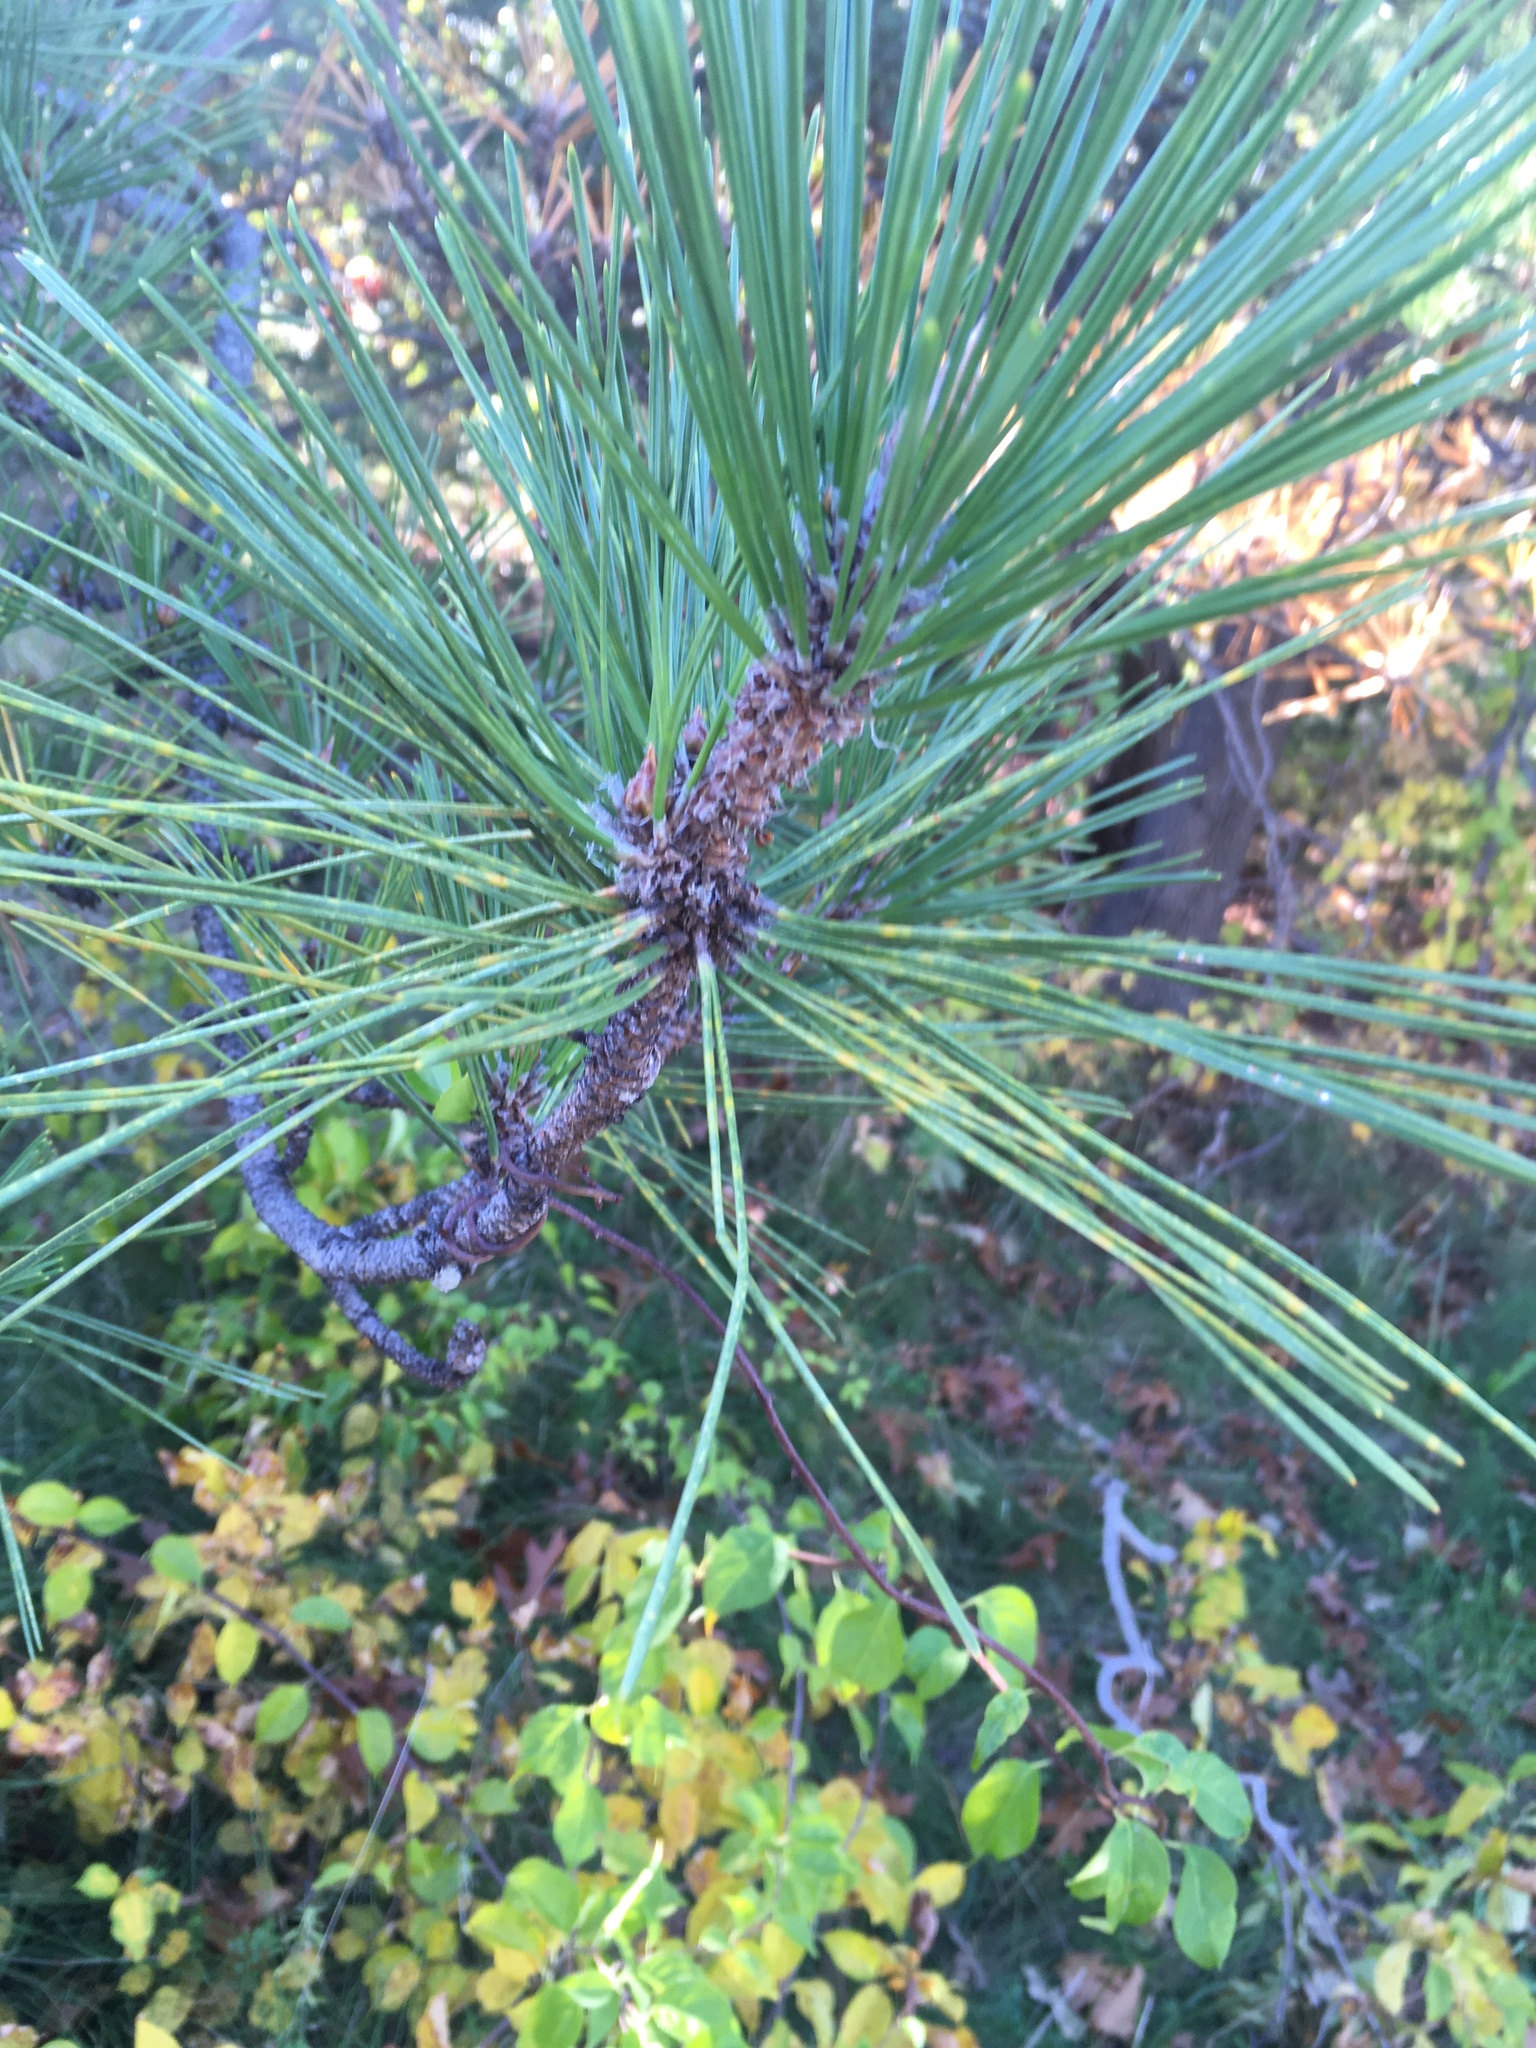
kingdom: Plantae
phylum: Tracheophyta
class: Pinopsida
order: Pinales
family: Pinaceae
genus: Pinus
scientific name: Pinus resinosa
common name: Norway pine
